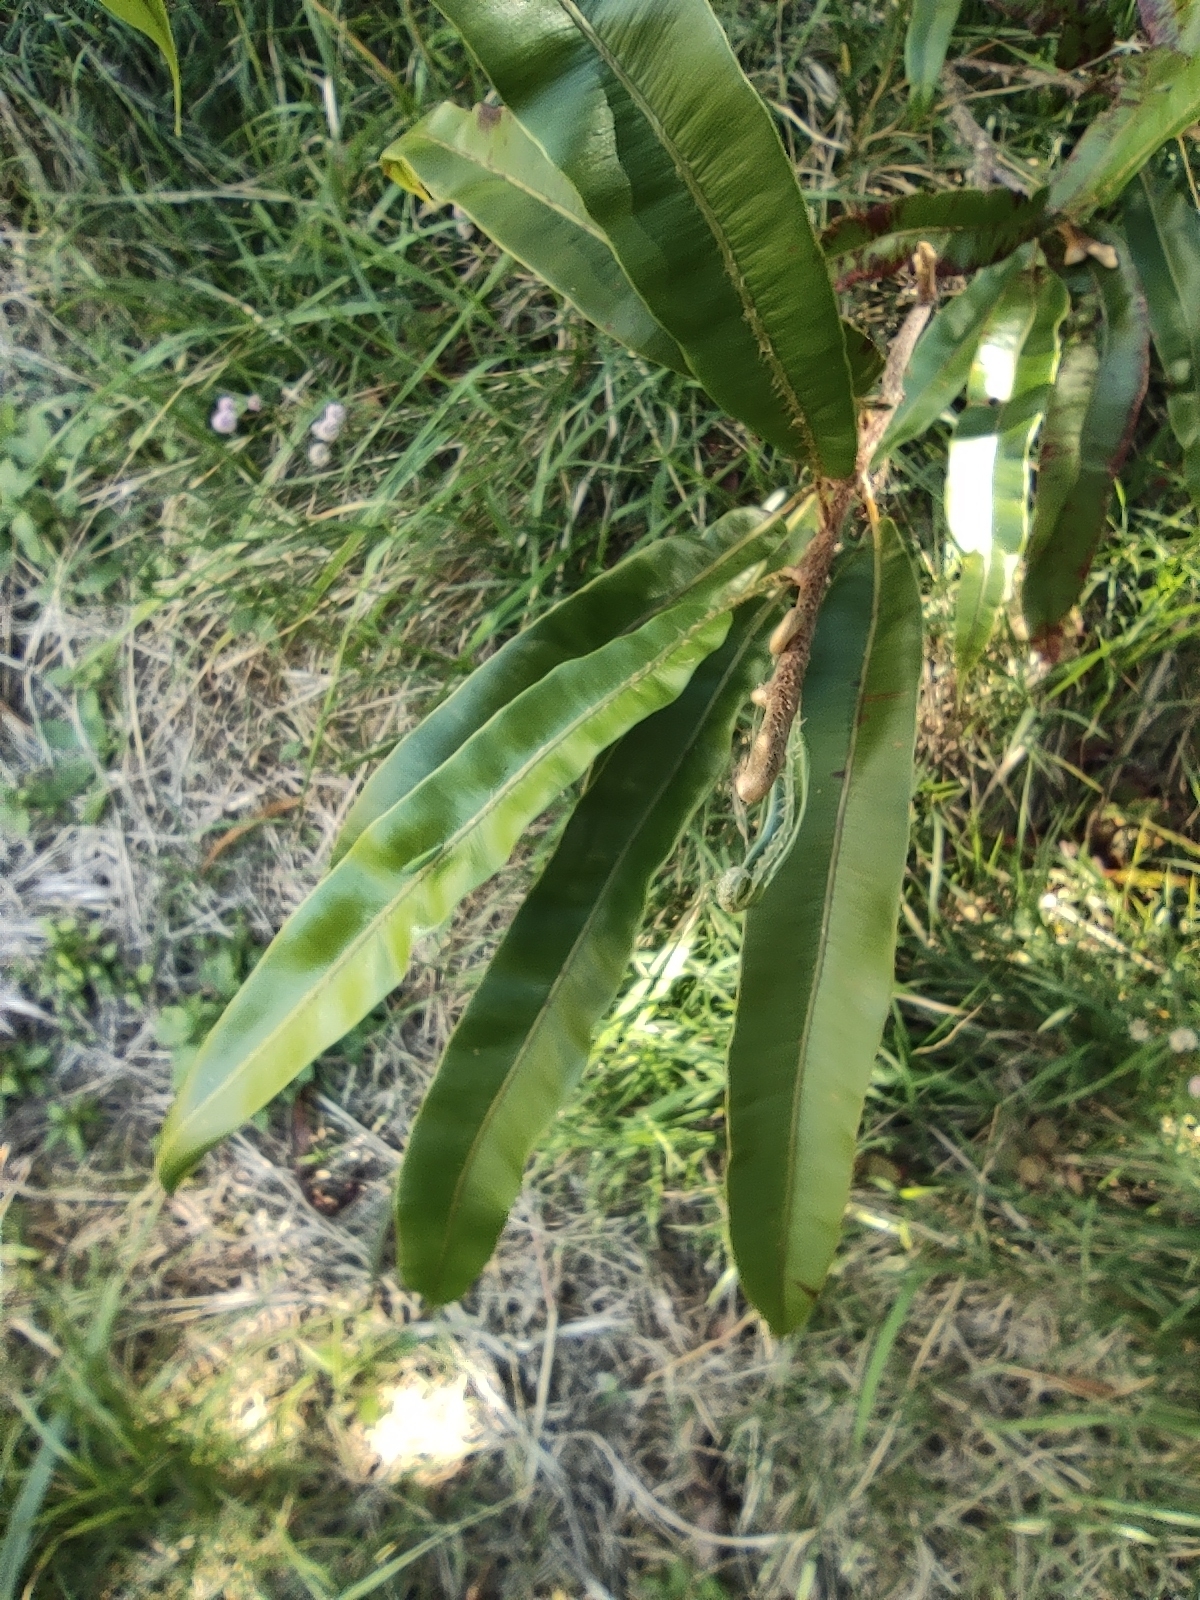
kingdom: Plantae
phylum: Tracheophyta
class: Polypodiopsida
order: Polypodiales
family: Oleandraceae
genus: Oleandra
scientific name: Oleandra distenta
